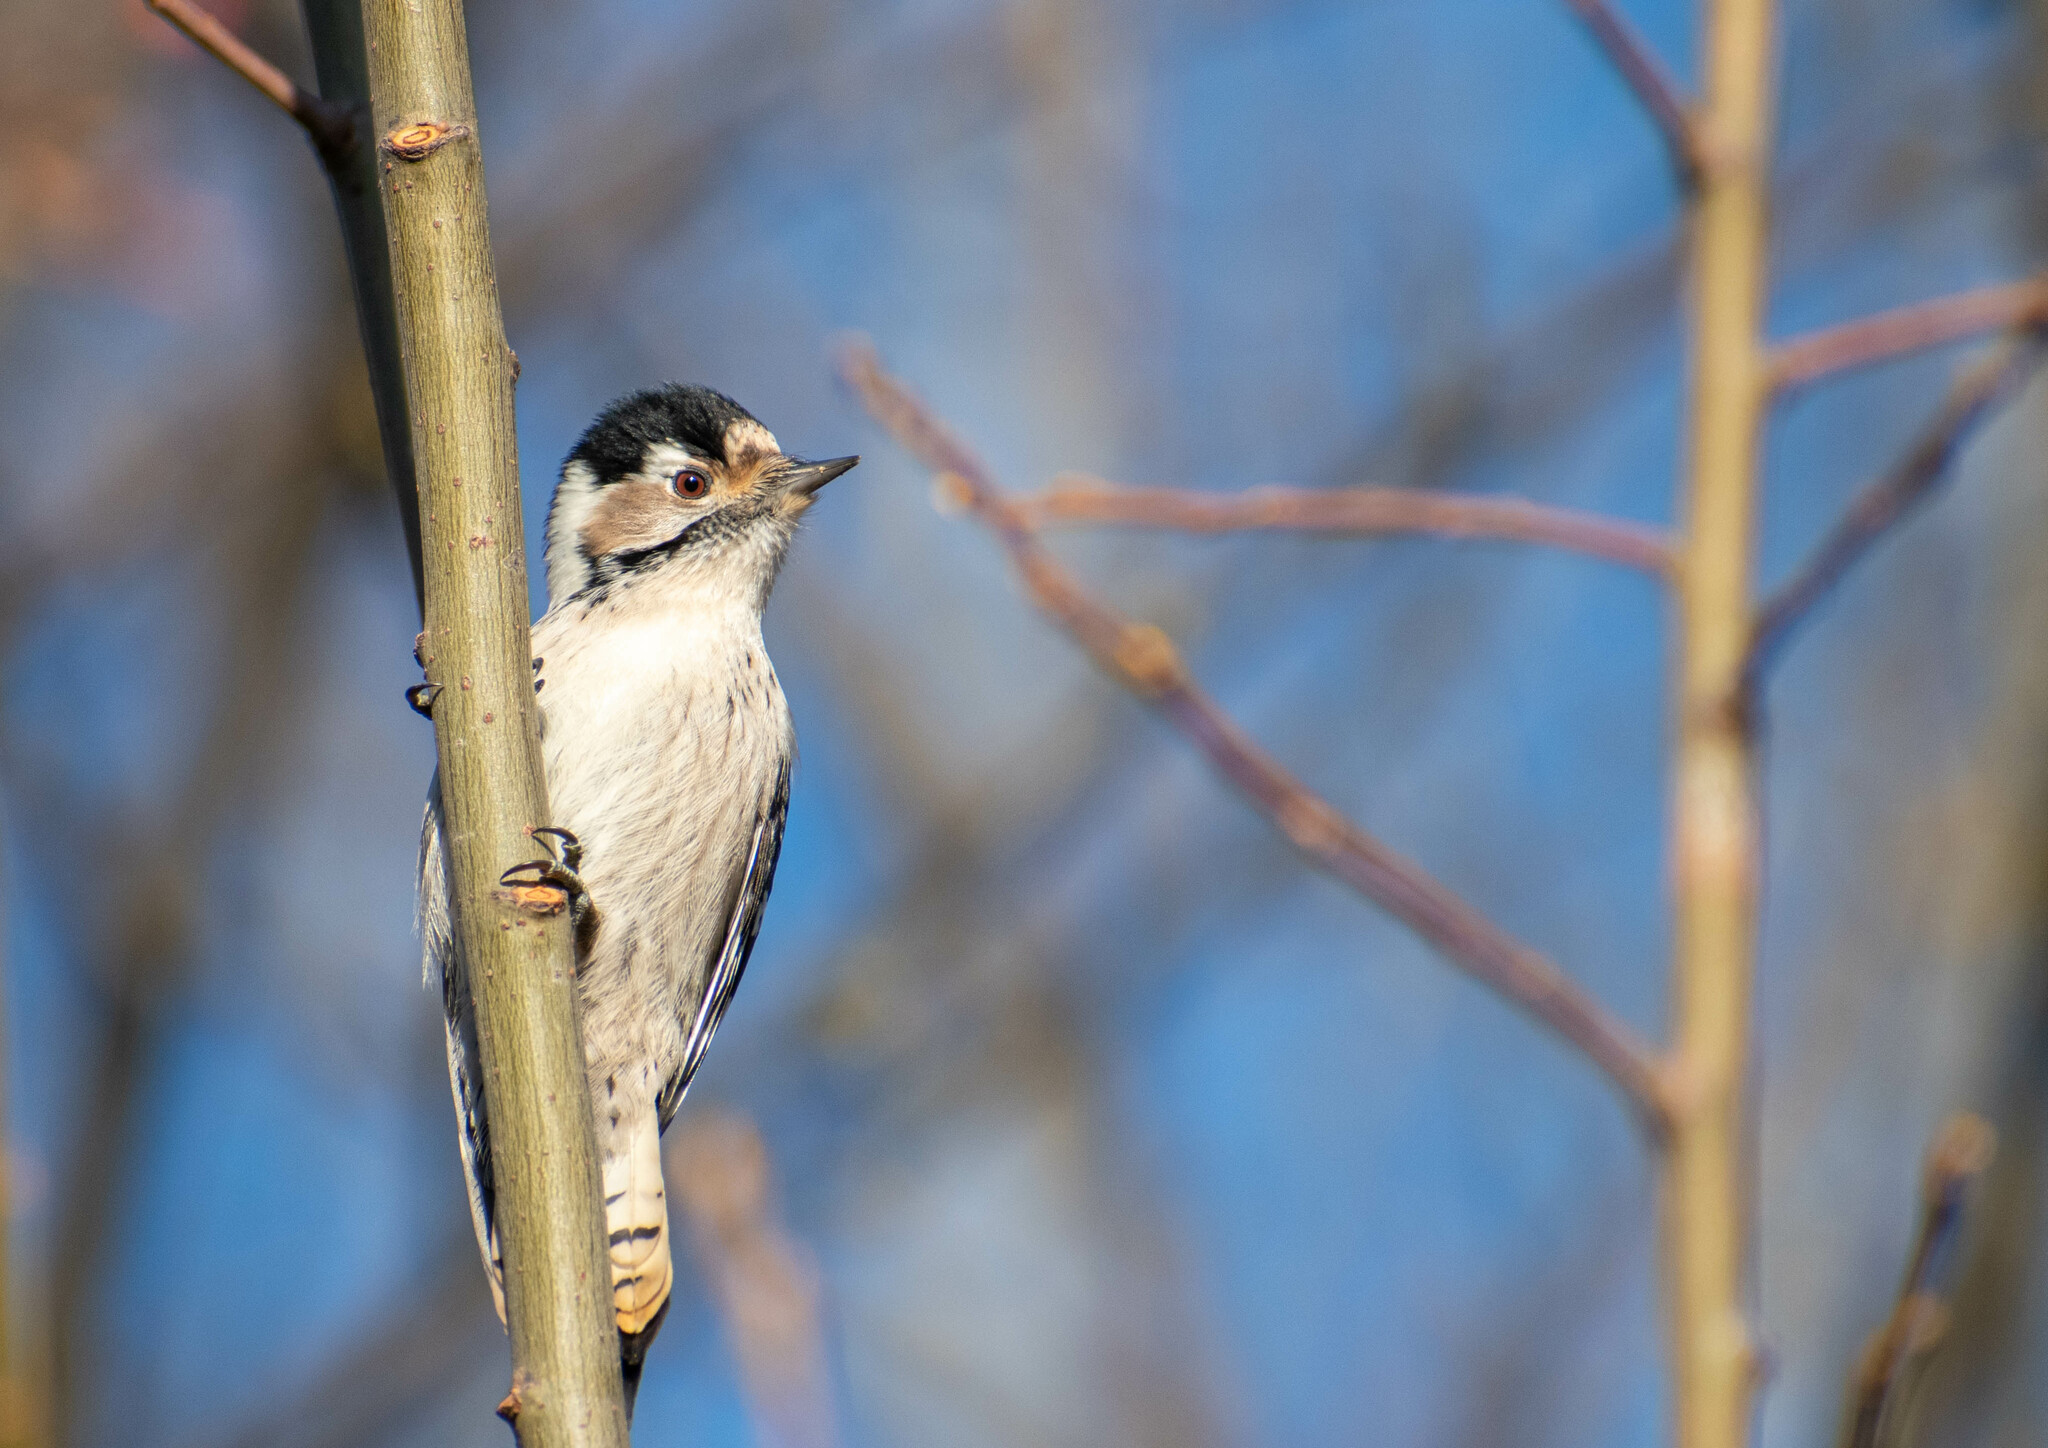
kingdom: Animalia
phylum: Chordata
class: Aves
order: Piciformes
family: Picidae
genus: Dryobates
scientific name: Dryobates minor
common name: Lesser spotted woodpecker
